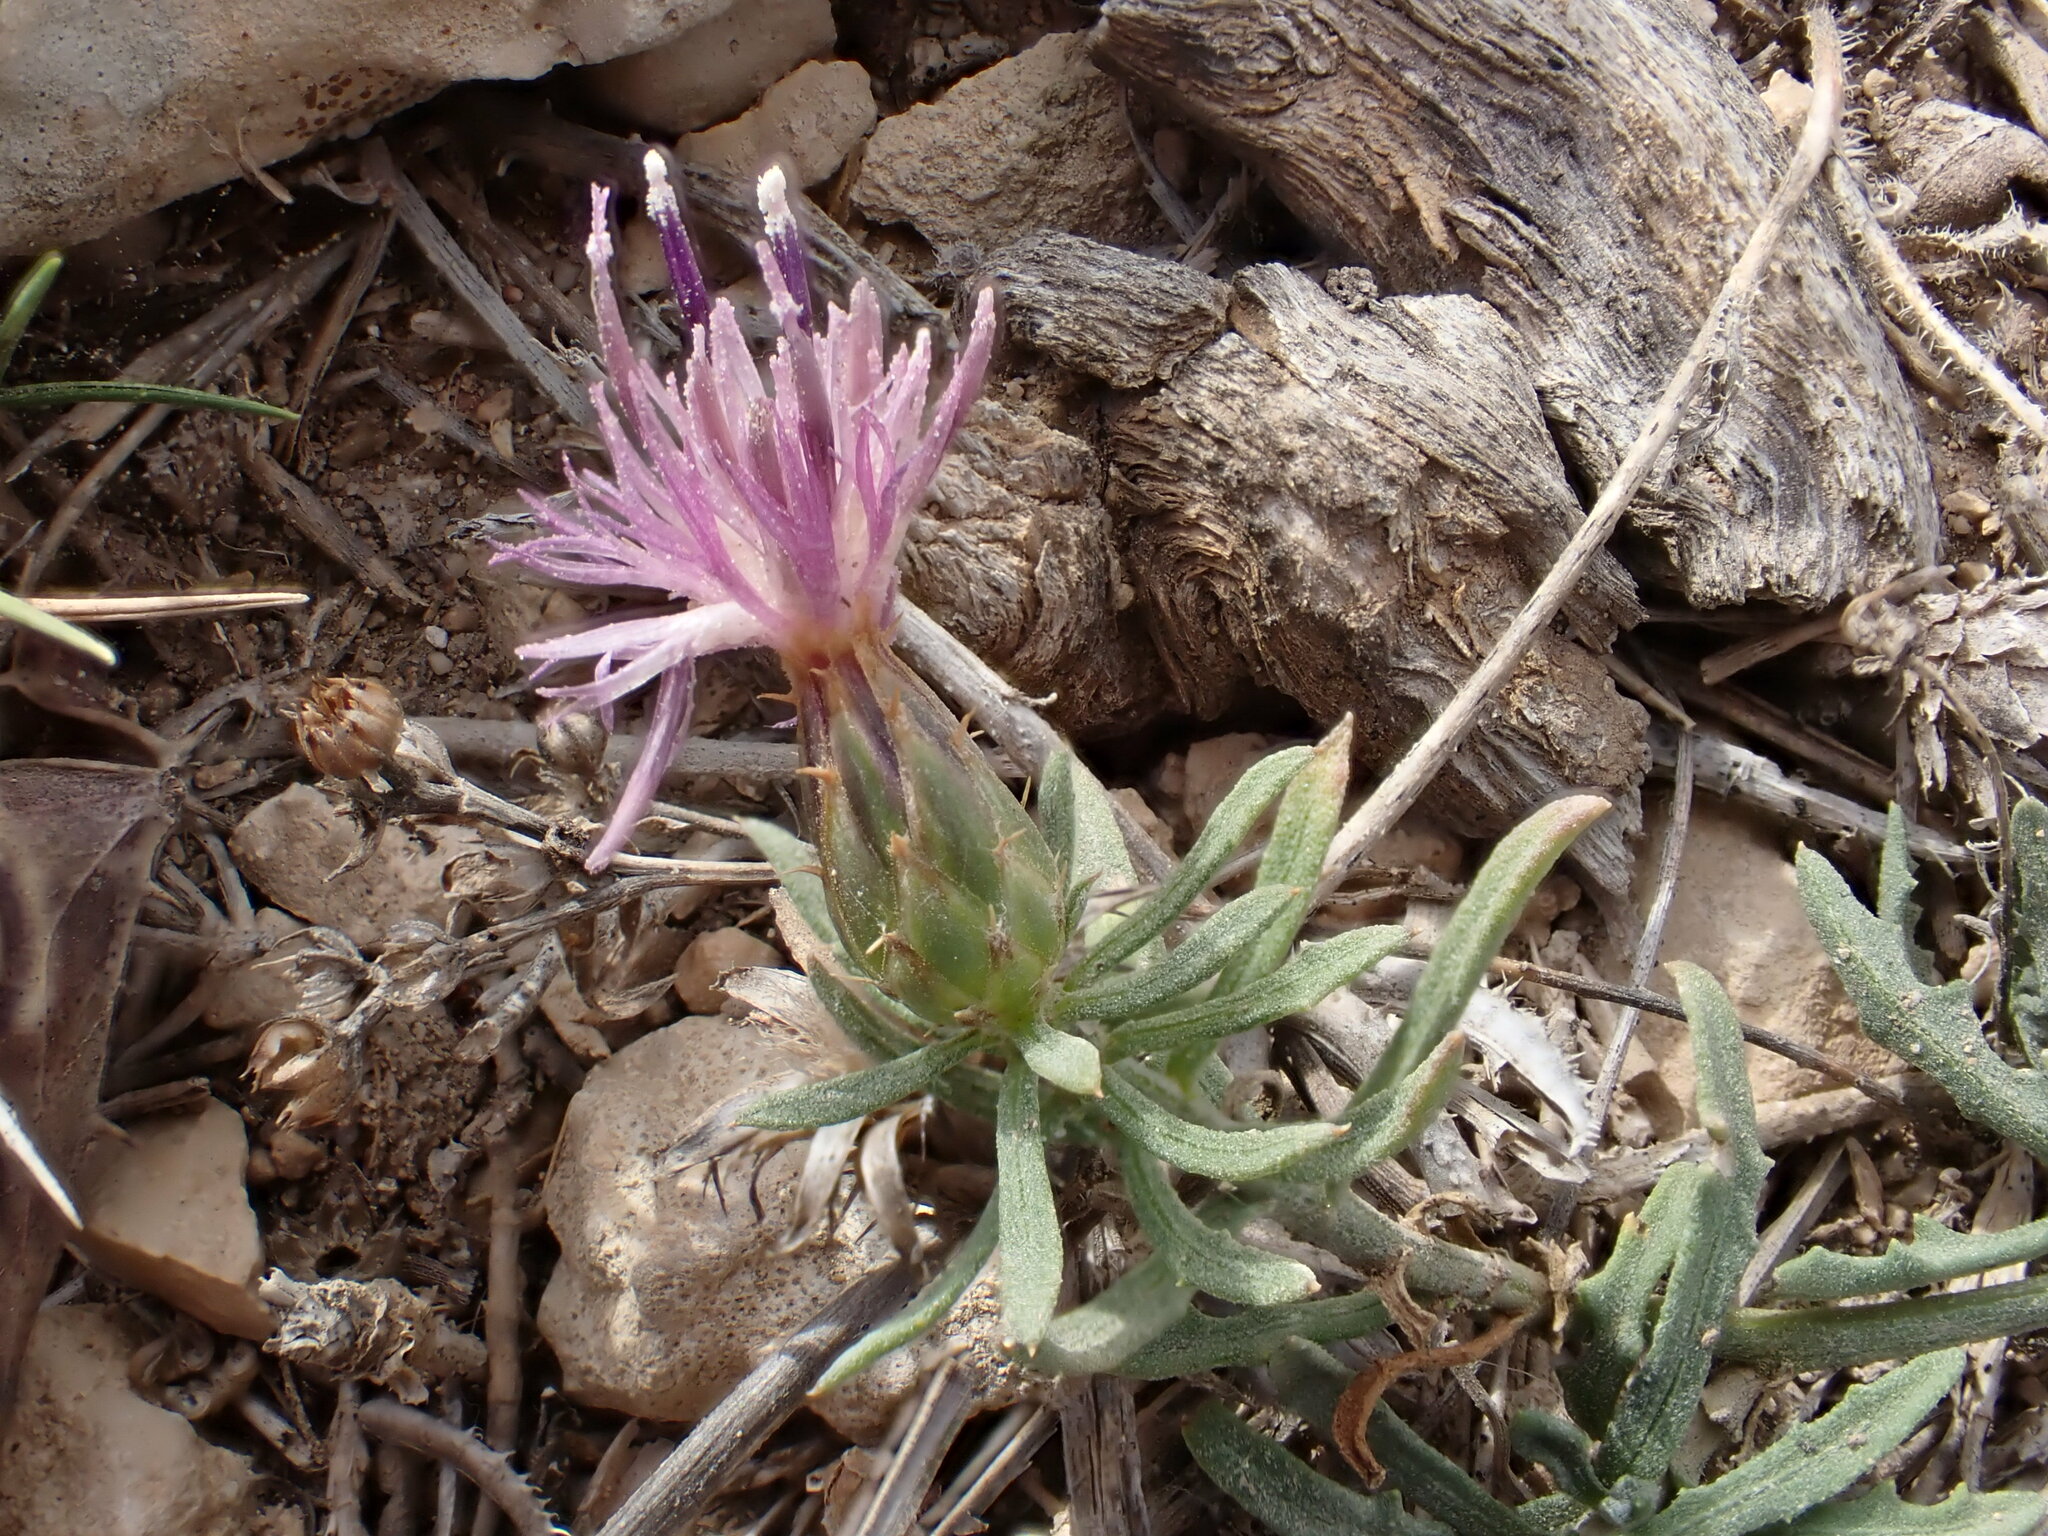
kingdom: Plantae
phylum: Tracheophyta
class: Magnoliopsida
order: Asterales
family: Asteraceae
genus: Centaurea
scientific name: Centaurea aspera
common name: Rough star-thistle
